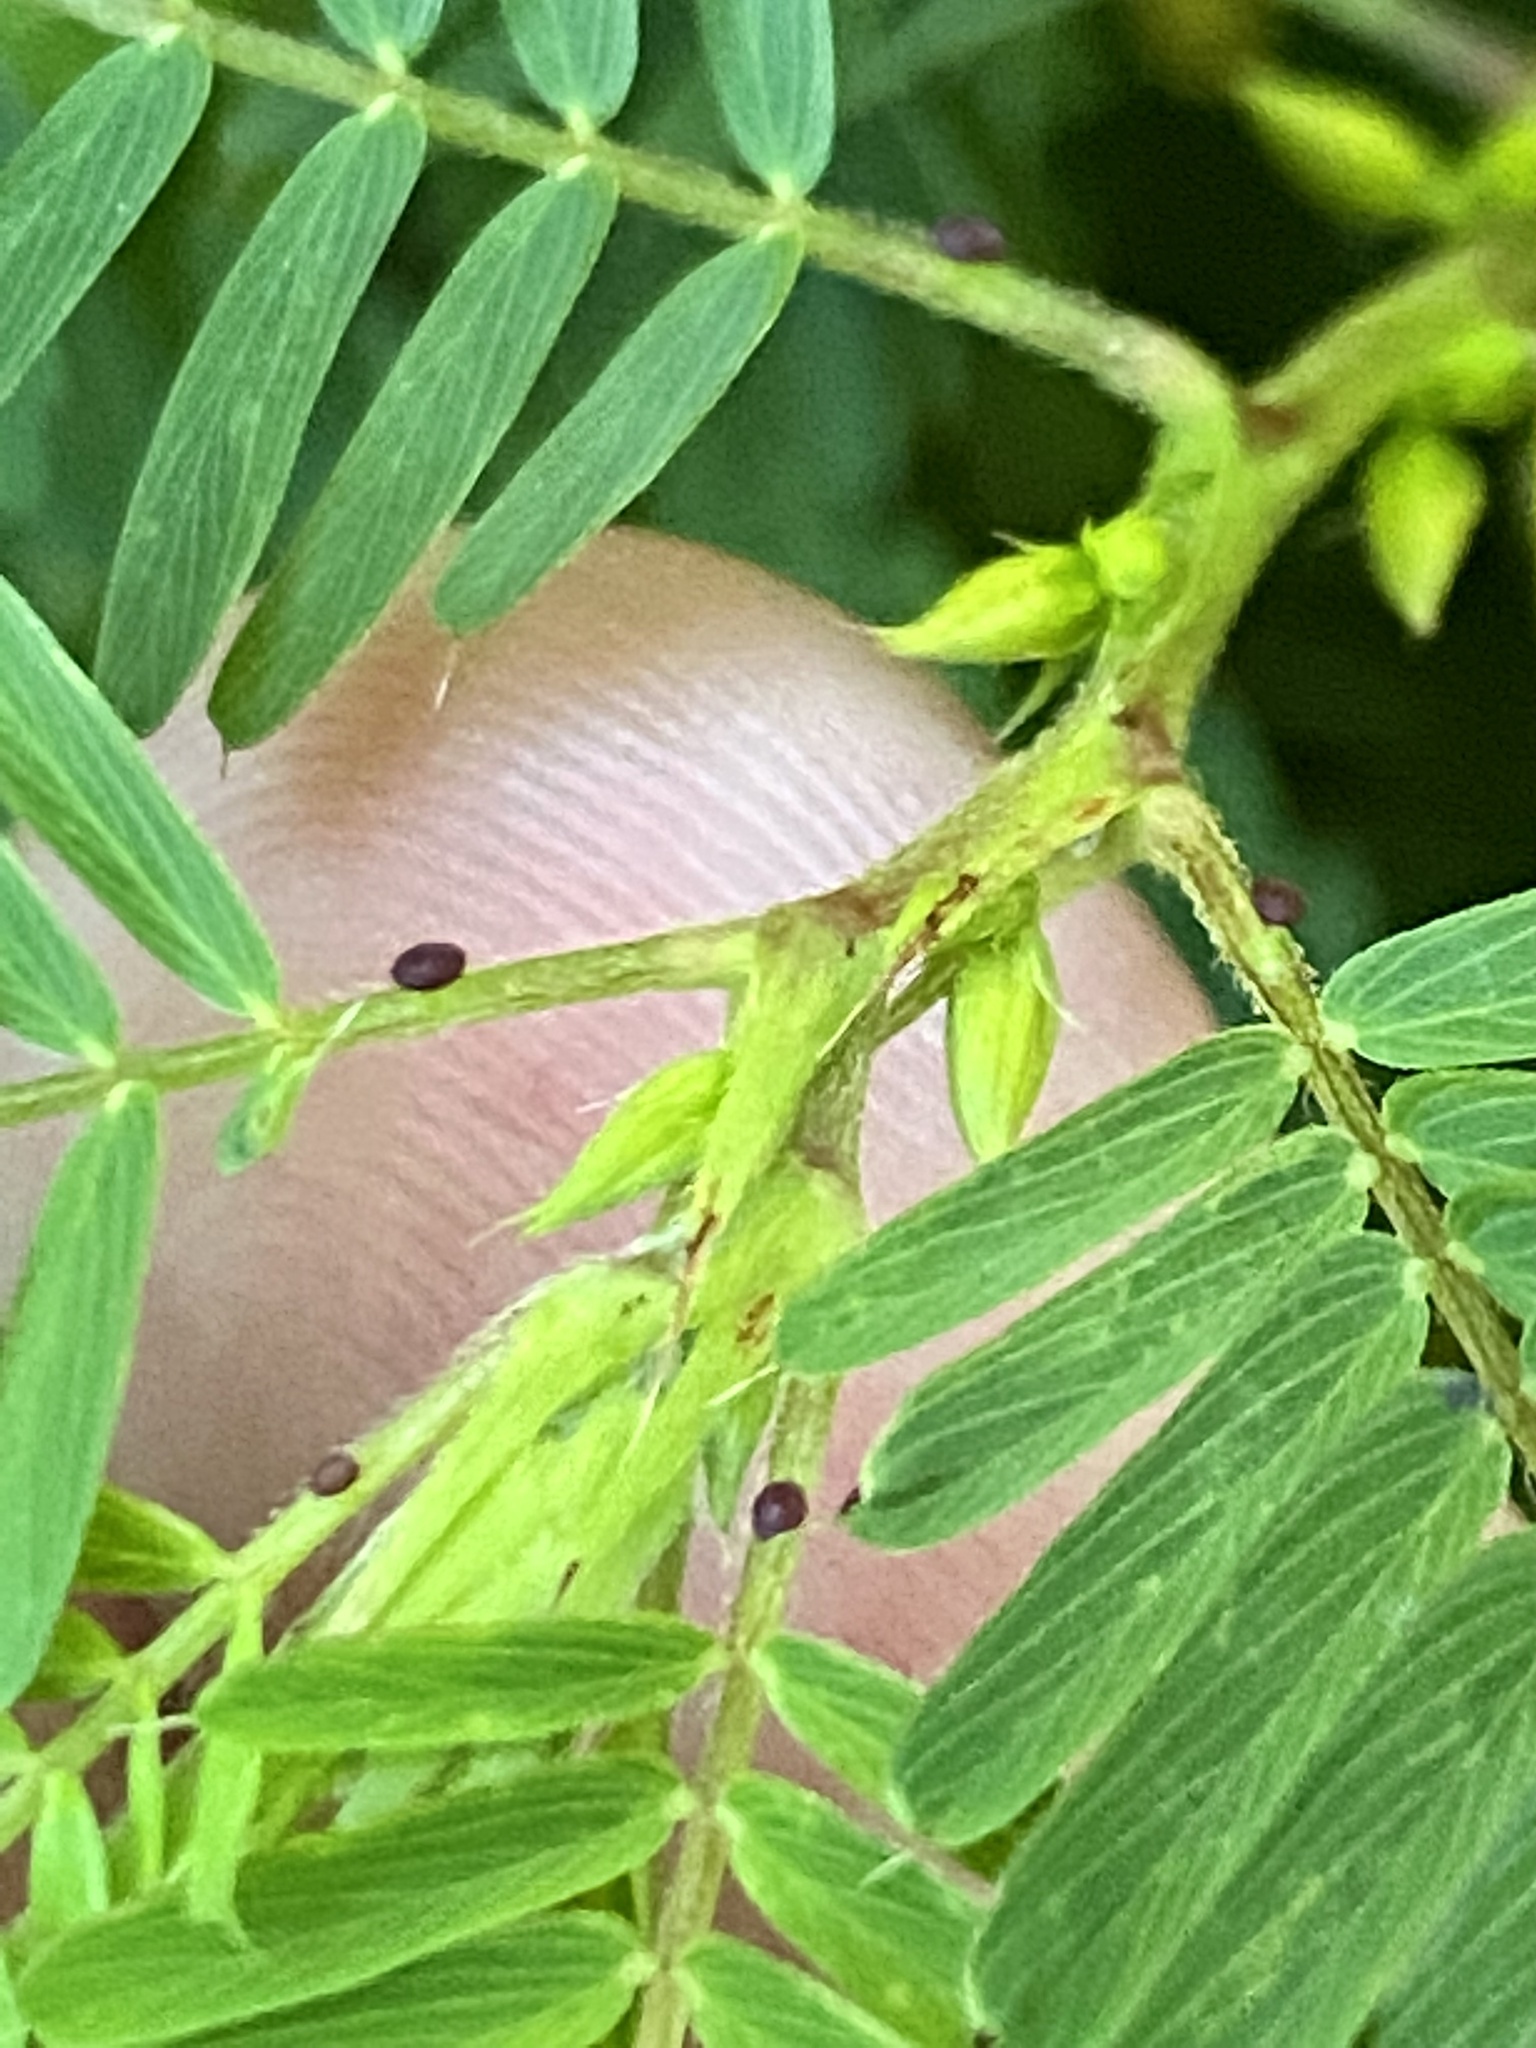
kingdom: Plantae
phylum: Tracheophyta
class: Magnoliopsida
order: Fabales
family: Fabaceae
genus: Chamaecrista
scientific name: Chamaecrista nictitans
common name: Sensitive cassia
